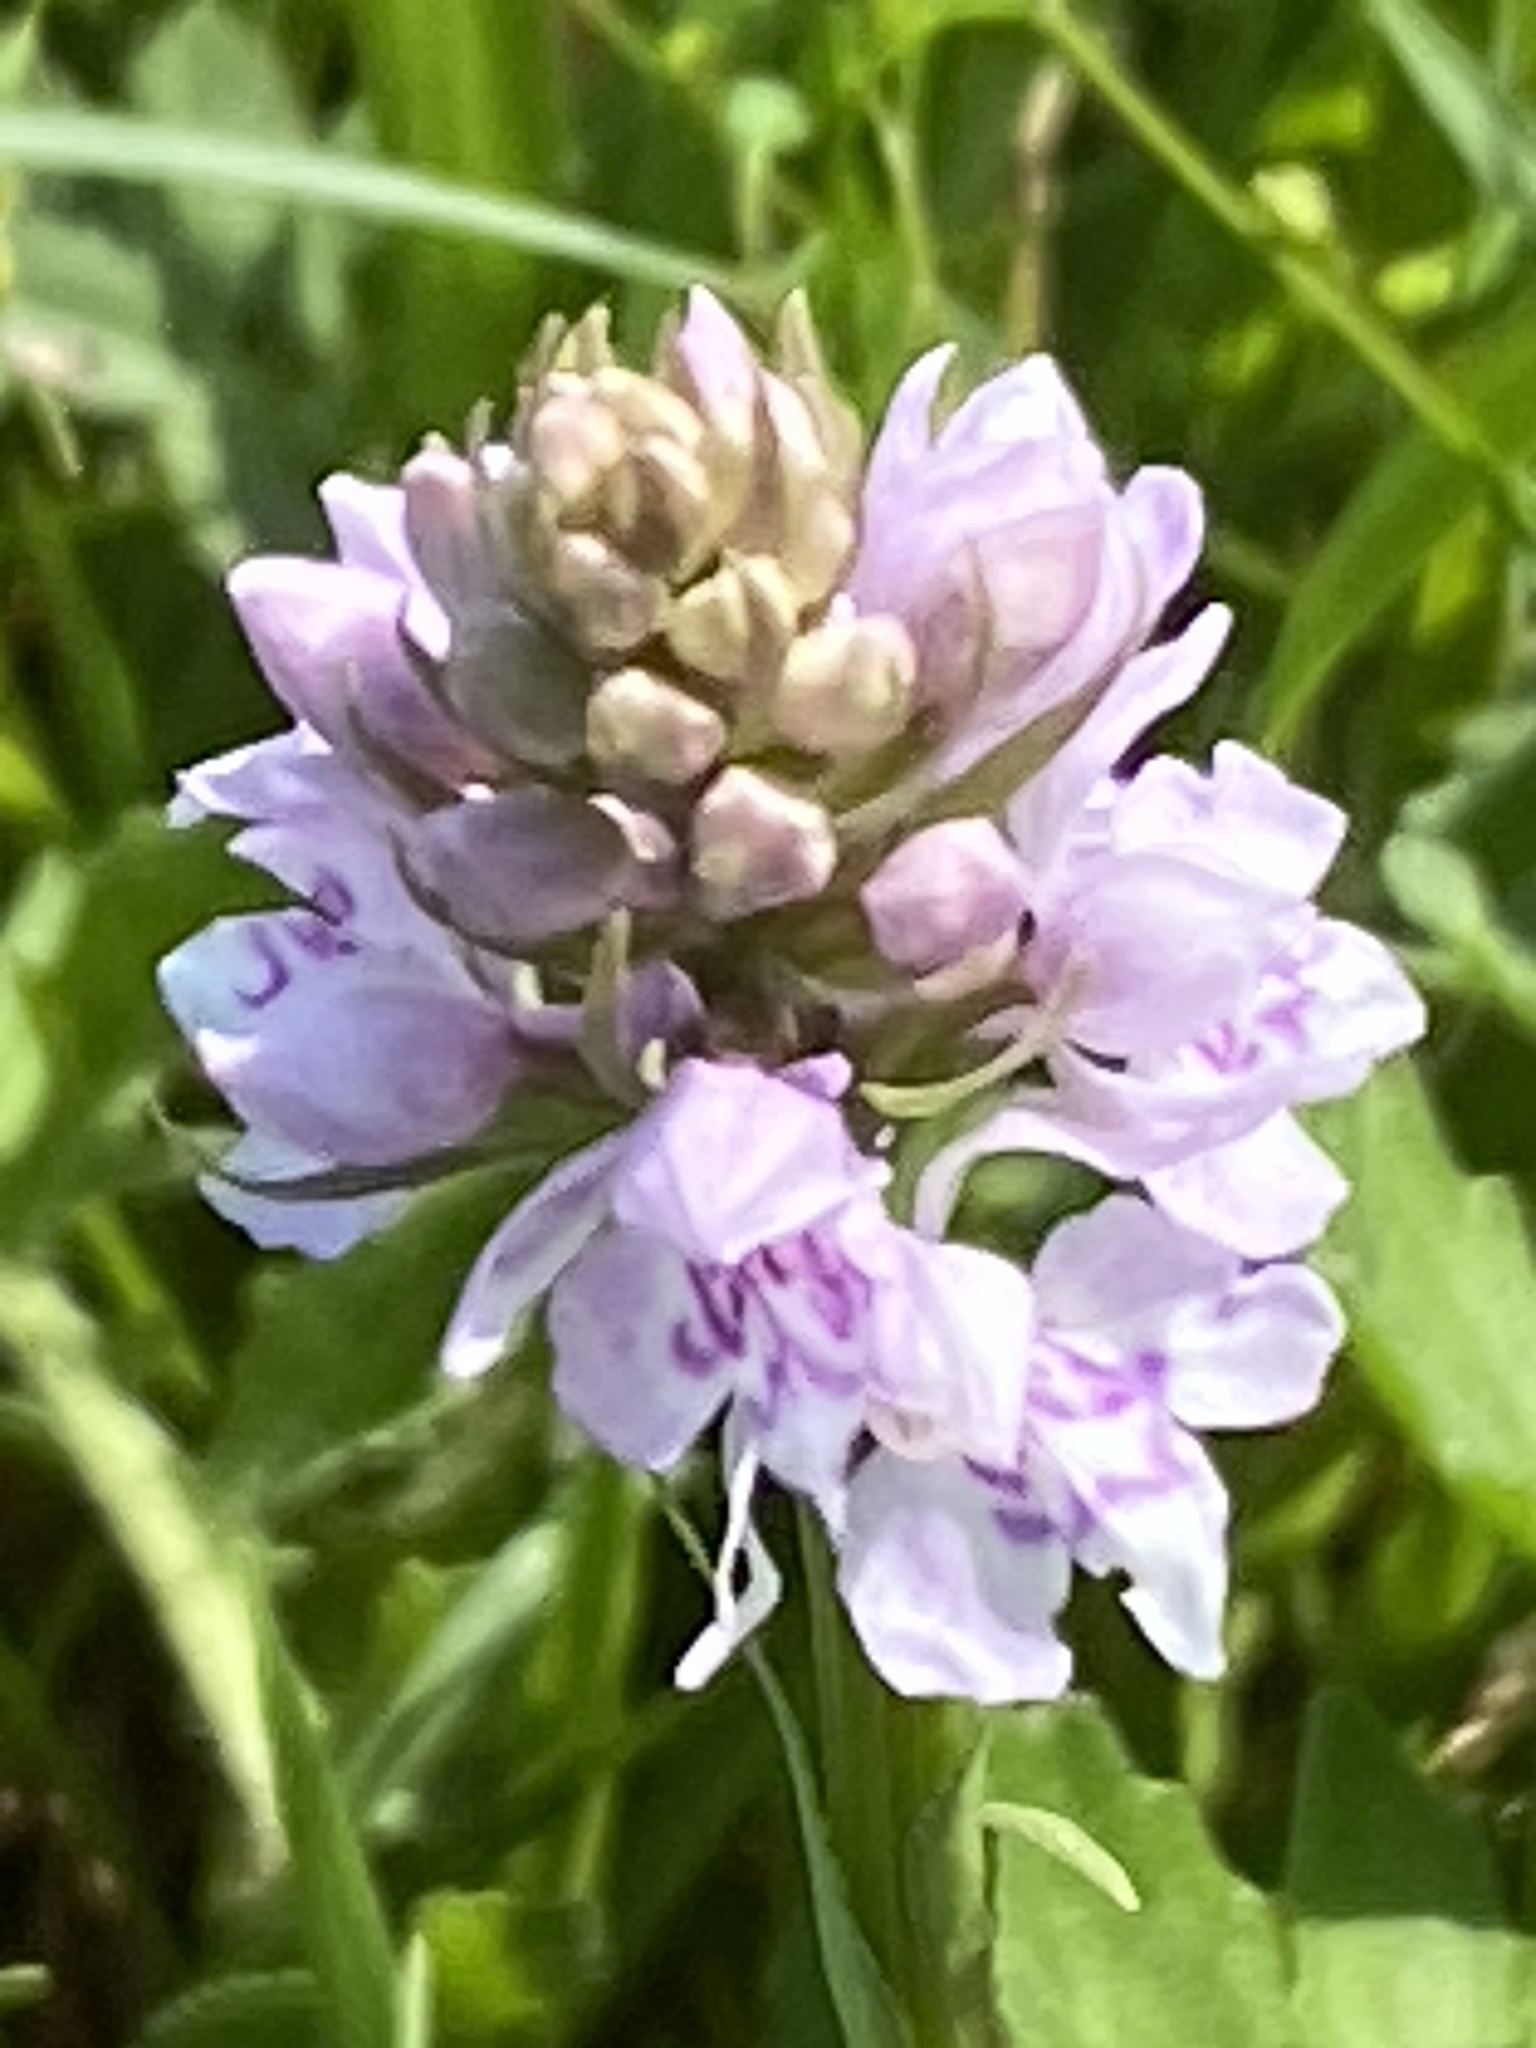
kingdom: Plantae
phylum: Tracheophyta
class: Liliopsida
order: Asparagales
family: Orchidaceae
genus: Dactylorhiza
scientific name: Dactylorhiza maculata
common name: Heath spotted-orchid
